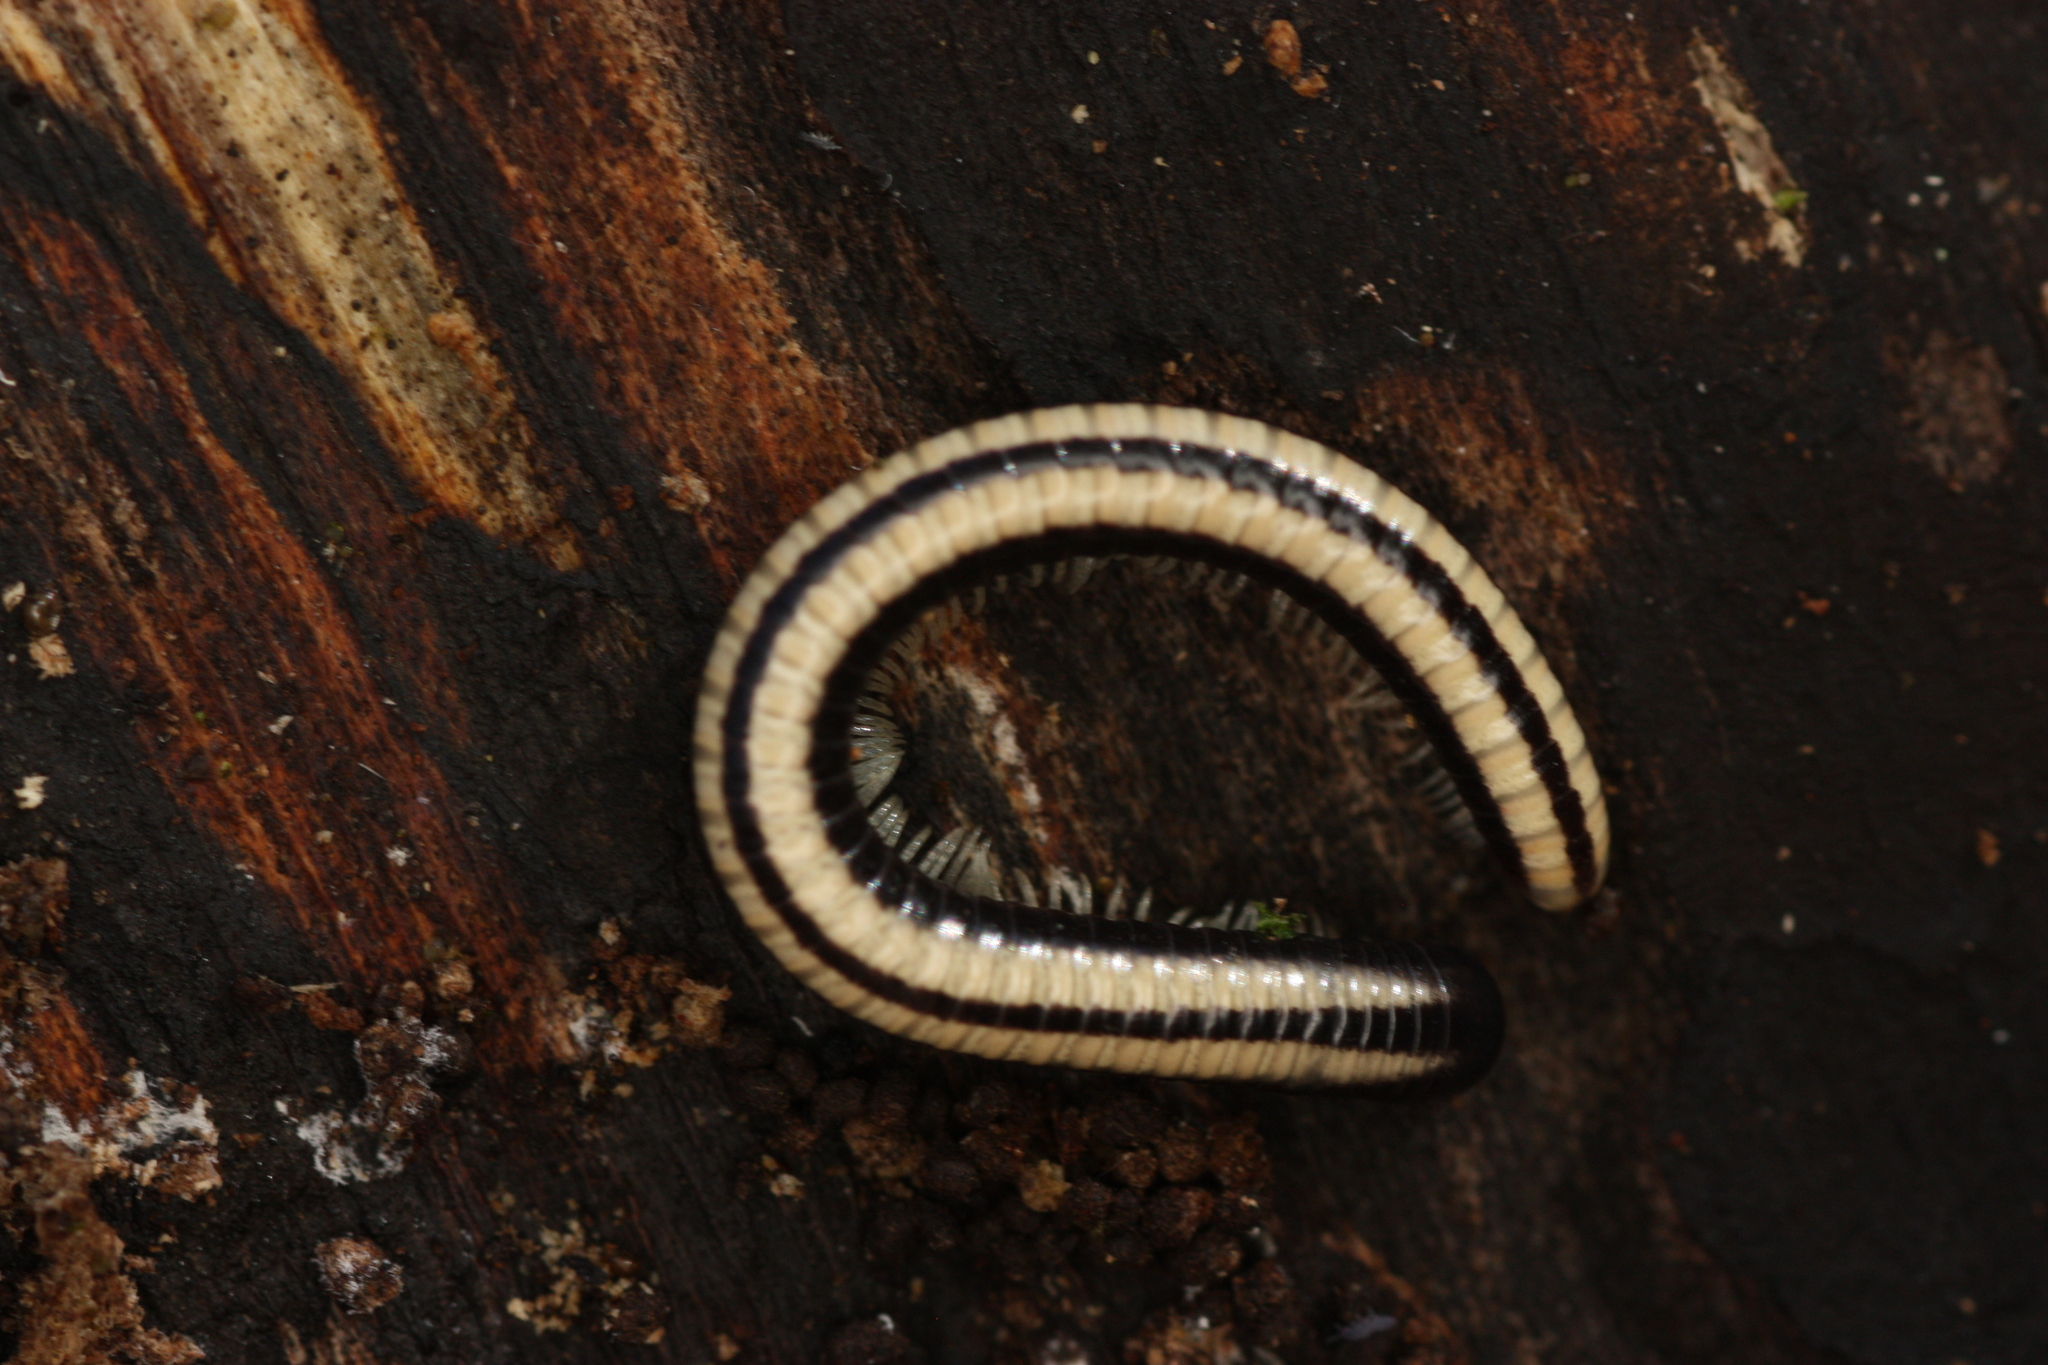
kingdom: Animalia
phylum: Arthropoda
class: Diplopoda
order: Spirobolida
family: Spirobolellidae
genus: Spirobolellus
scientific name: Spirobolellus immigrans
